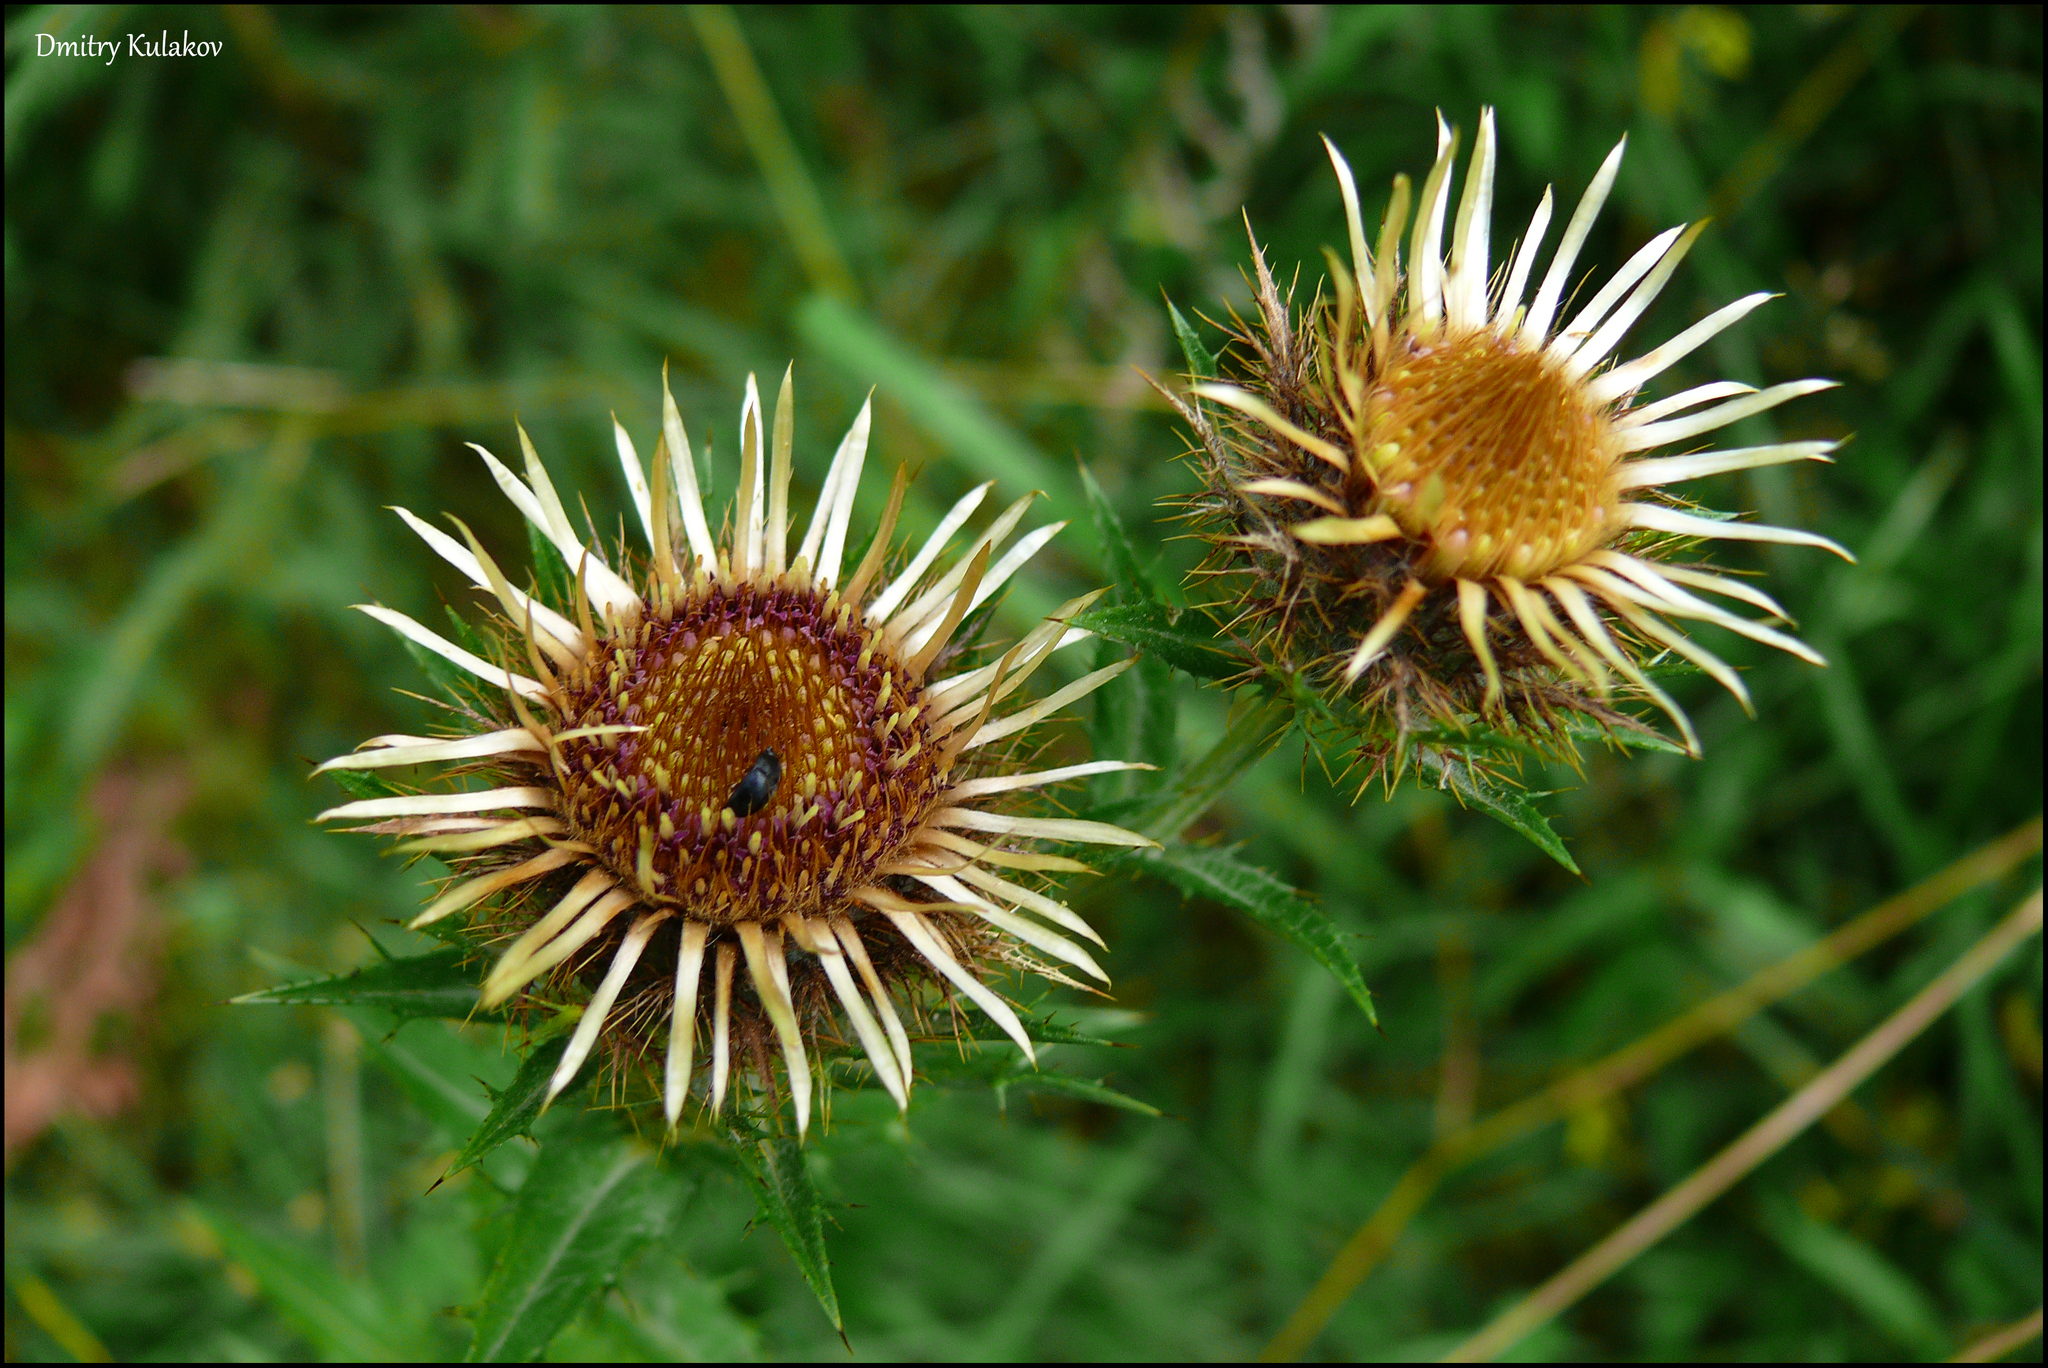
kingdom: Plantae
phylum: Tracheophyta
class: Magnoliopsida
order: Asterales
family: Asteraceae
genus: Carlina
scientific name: Carlina biebersteinii
